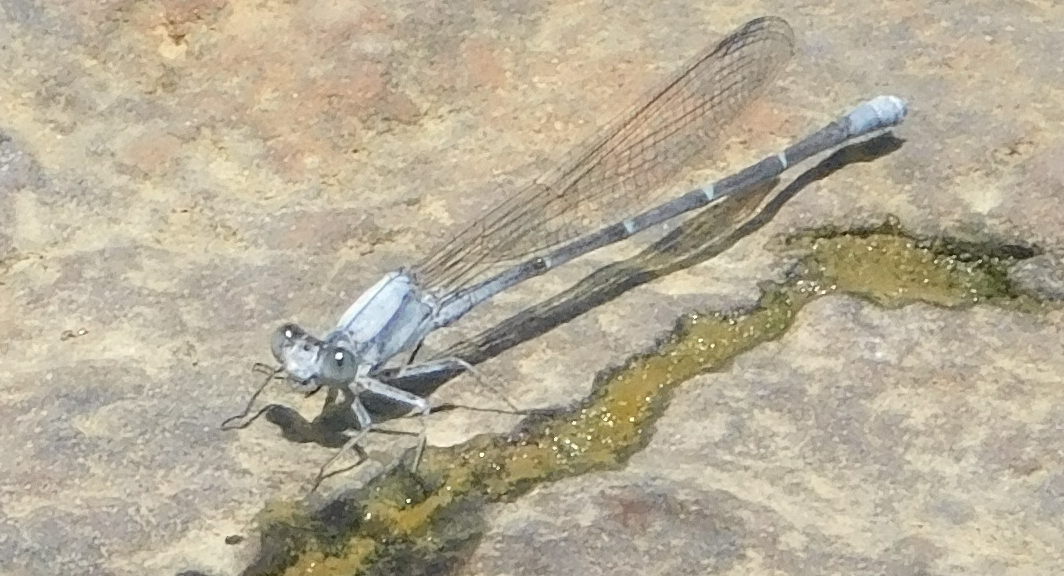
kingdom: Animalia
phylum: Arthropoda
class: Insecta
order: Odonata
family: Coenagrionidae
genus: Argia
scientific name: Argia moesta
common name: Powdered dancer
